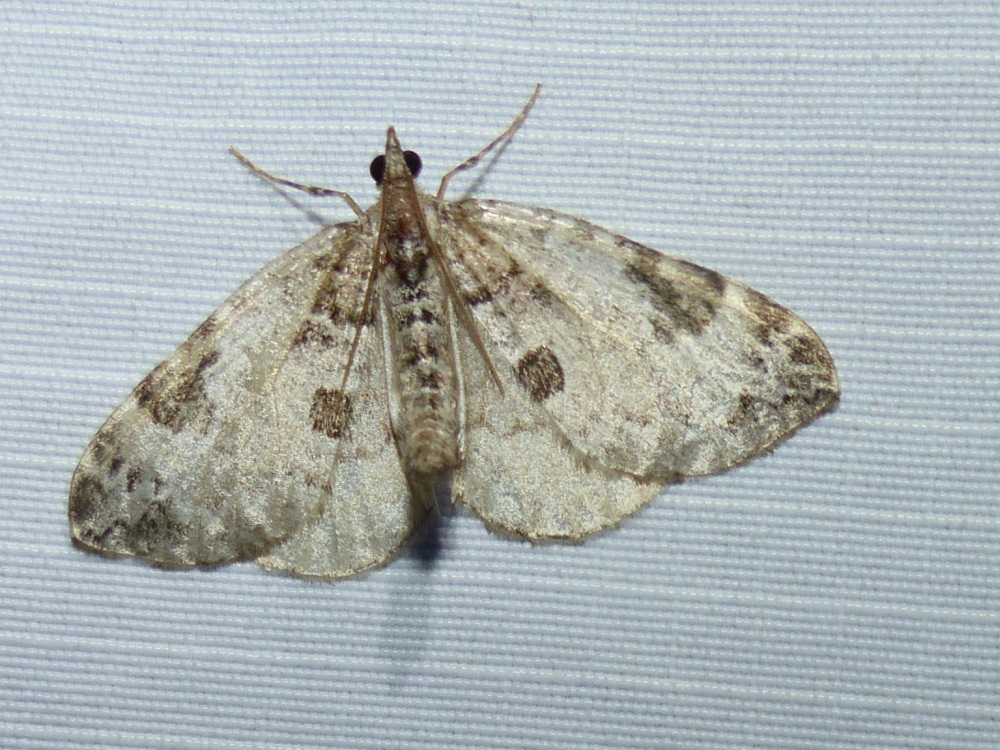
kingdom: Animalia
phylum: Arthropoda
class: Insecta
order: Lepidoptera
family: Geometridae
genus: Eulithis
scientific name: Eulithis explanata
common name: White eulithis
